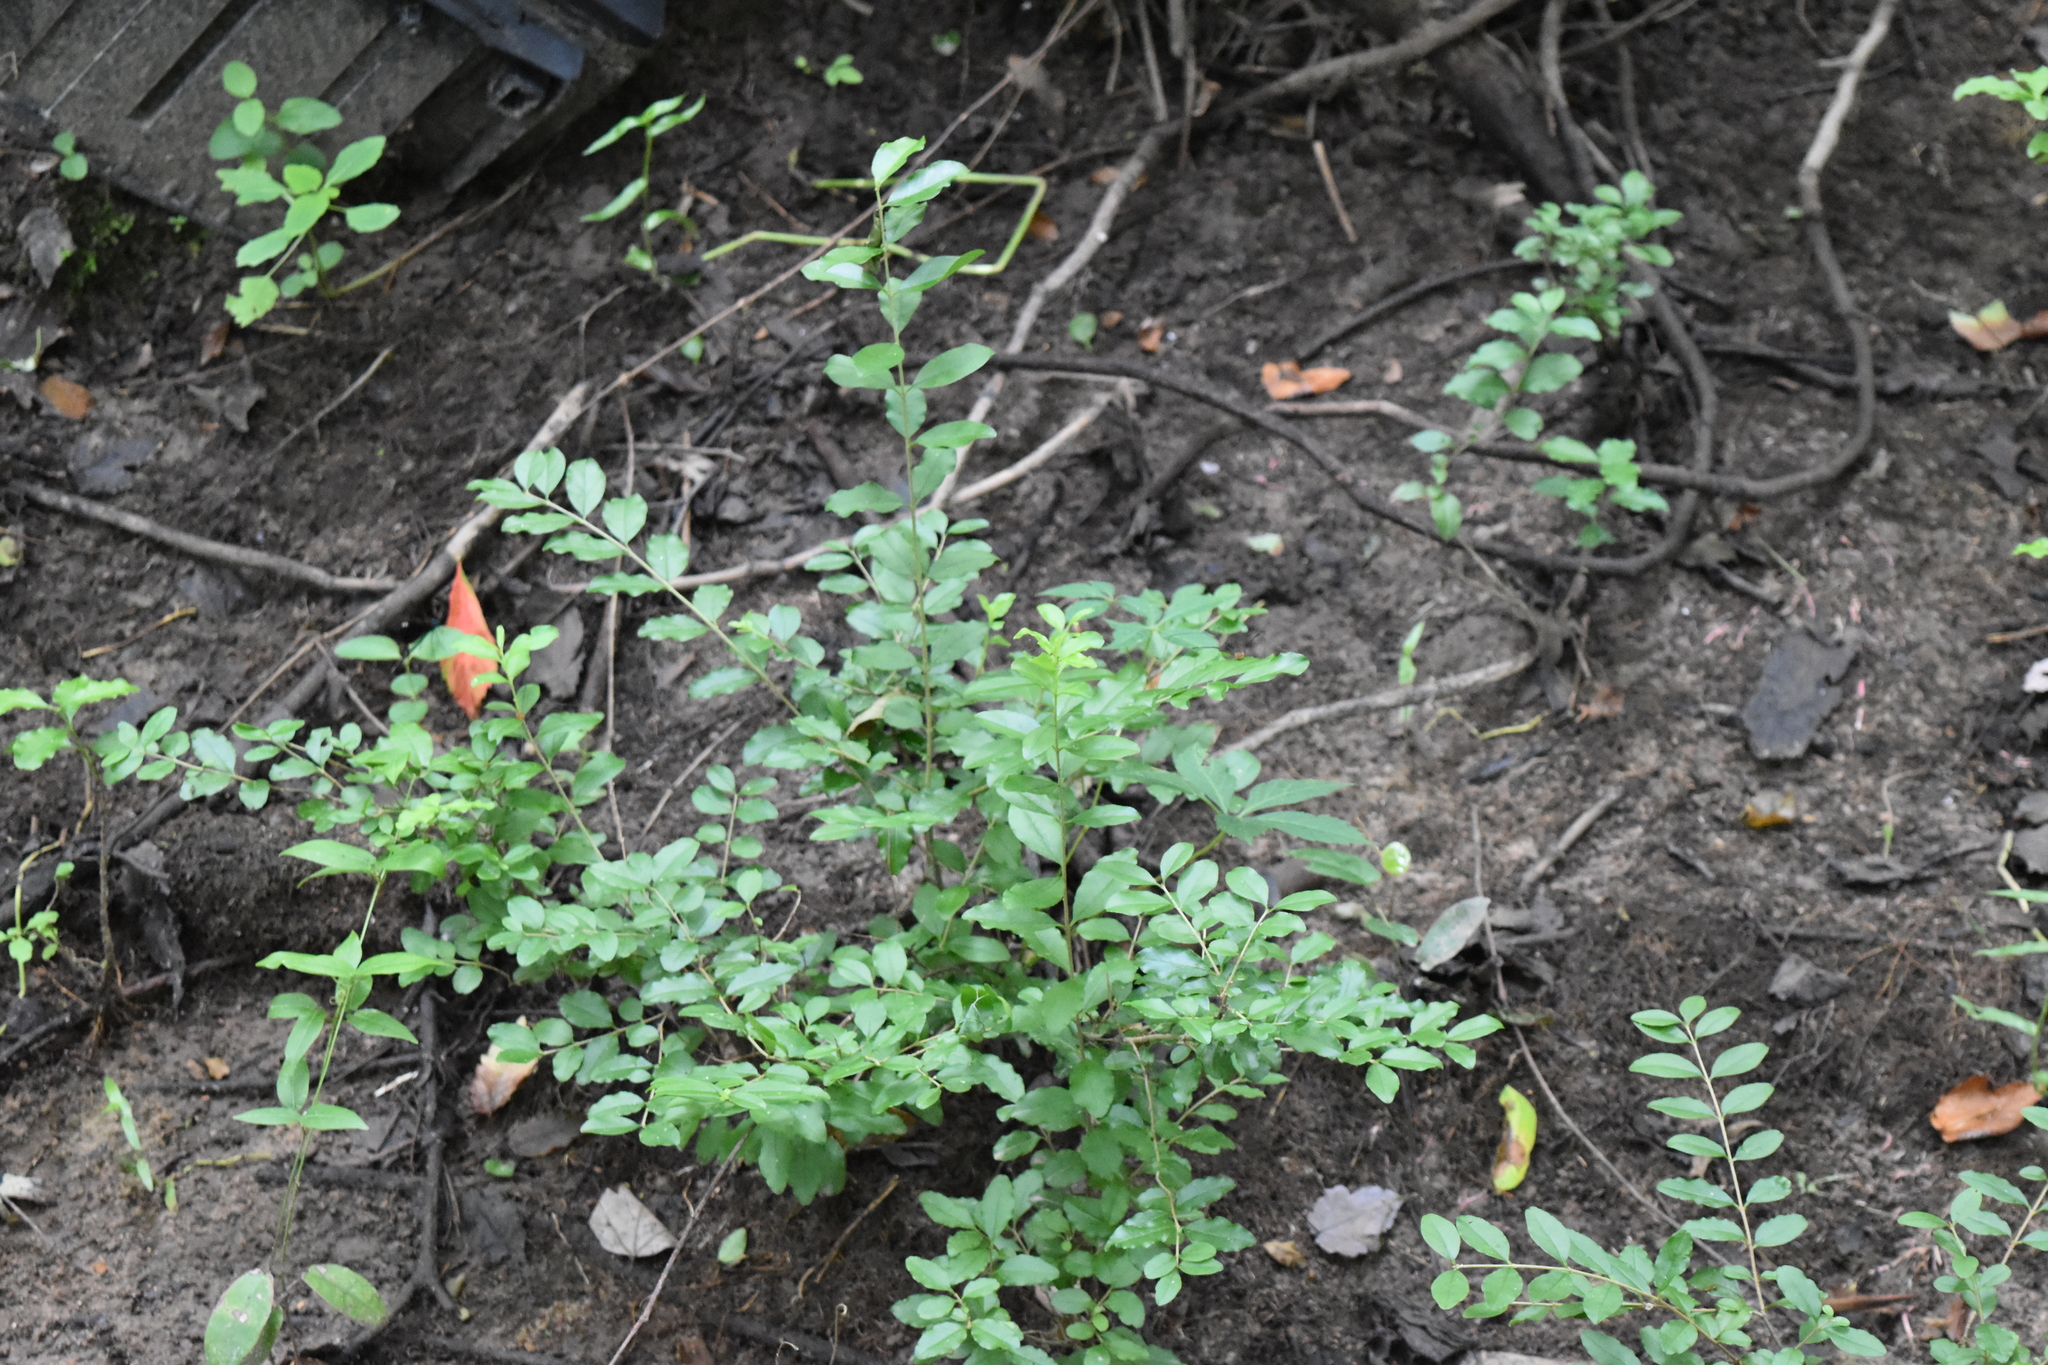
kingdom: Plantae
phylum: Tracheophyta
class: Magnoliopsida
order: Lamiales
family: Oleaceae
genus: Ligustrum
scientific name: Ligustrum sinense
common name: Chinese privet
